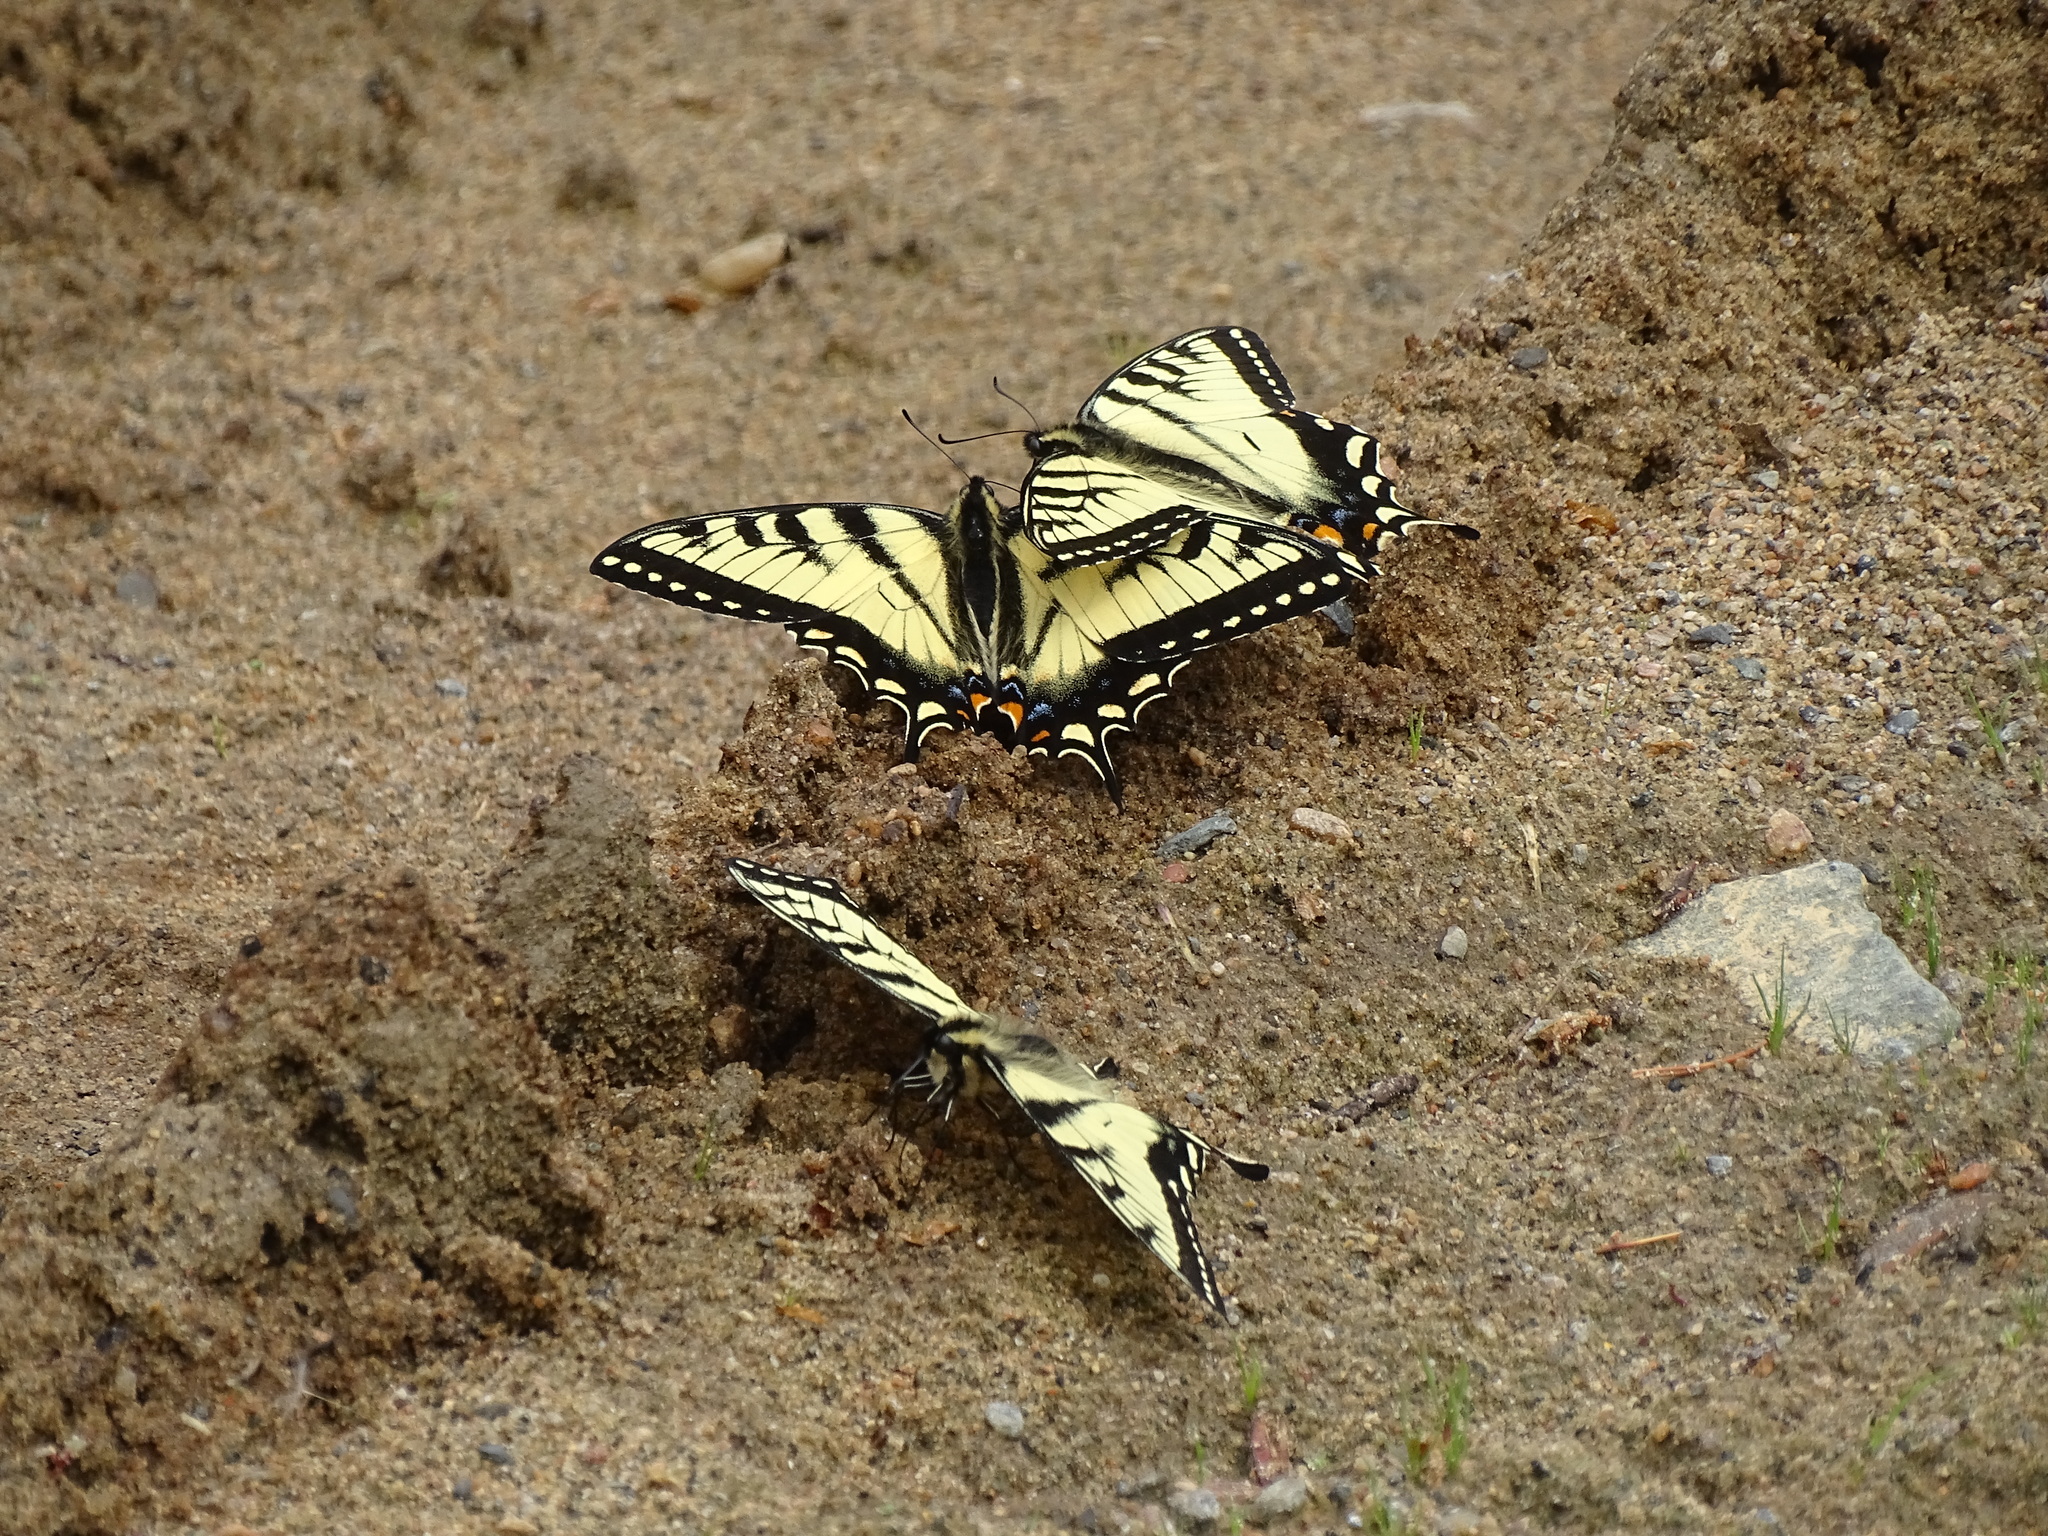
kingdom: Animalia
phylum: Arthropoda
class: Insecta
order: Lepidoptera
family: Papilionidae
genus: Papilio
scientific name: Papilio canadensis
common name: Canadian tiger swallowtail
